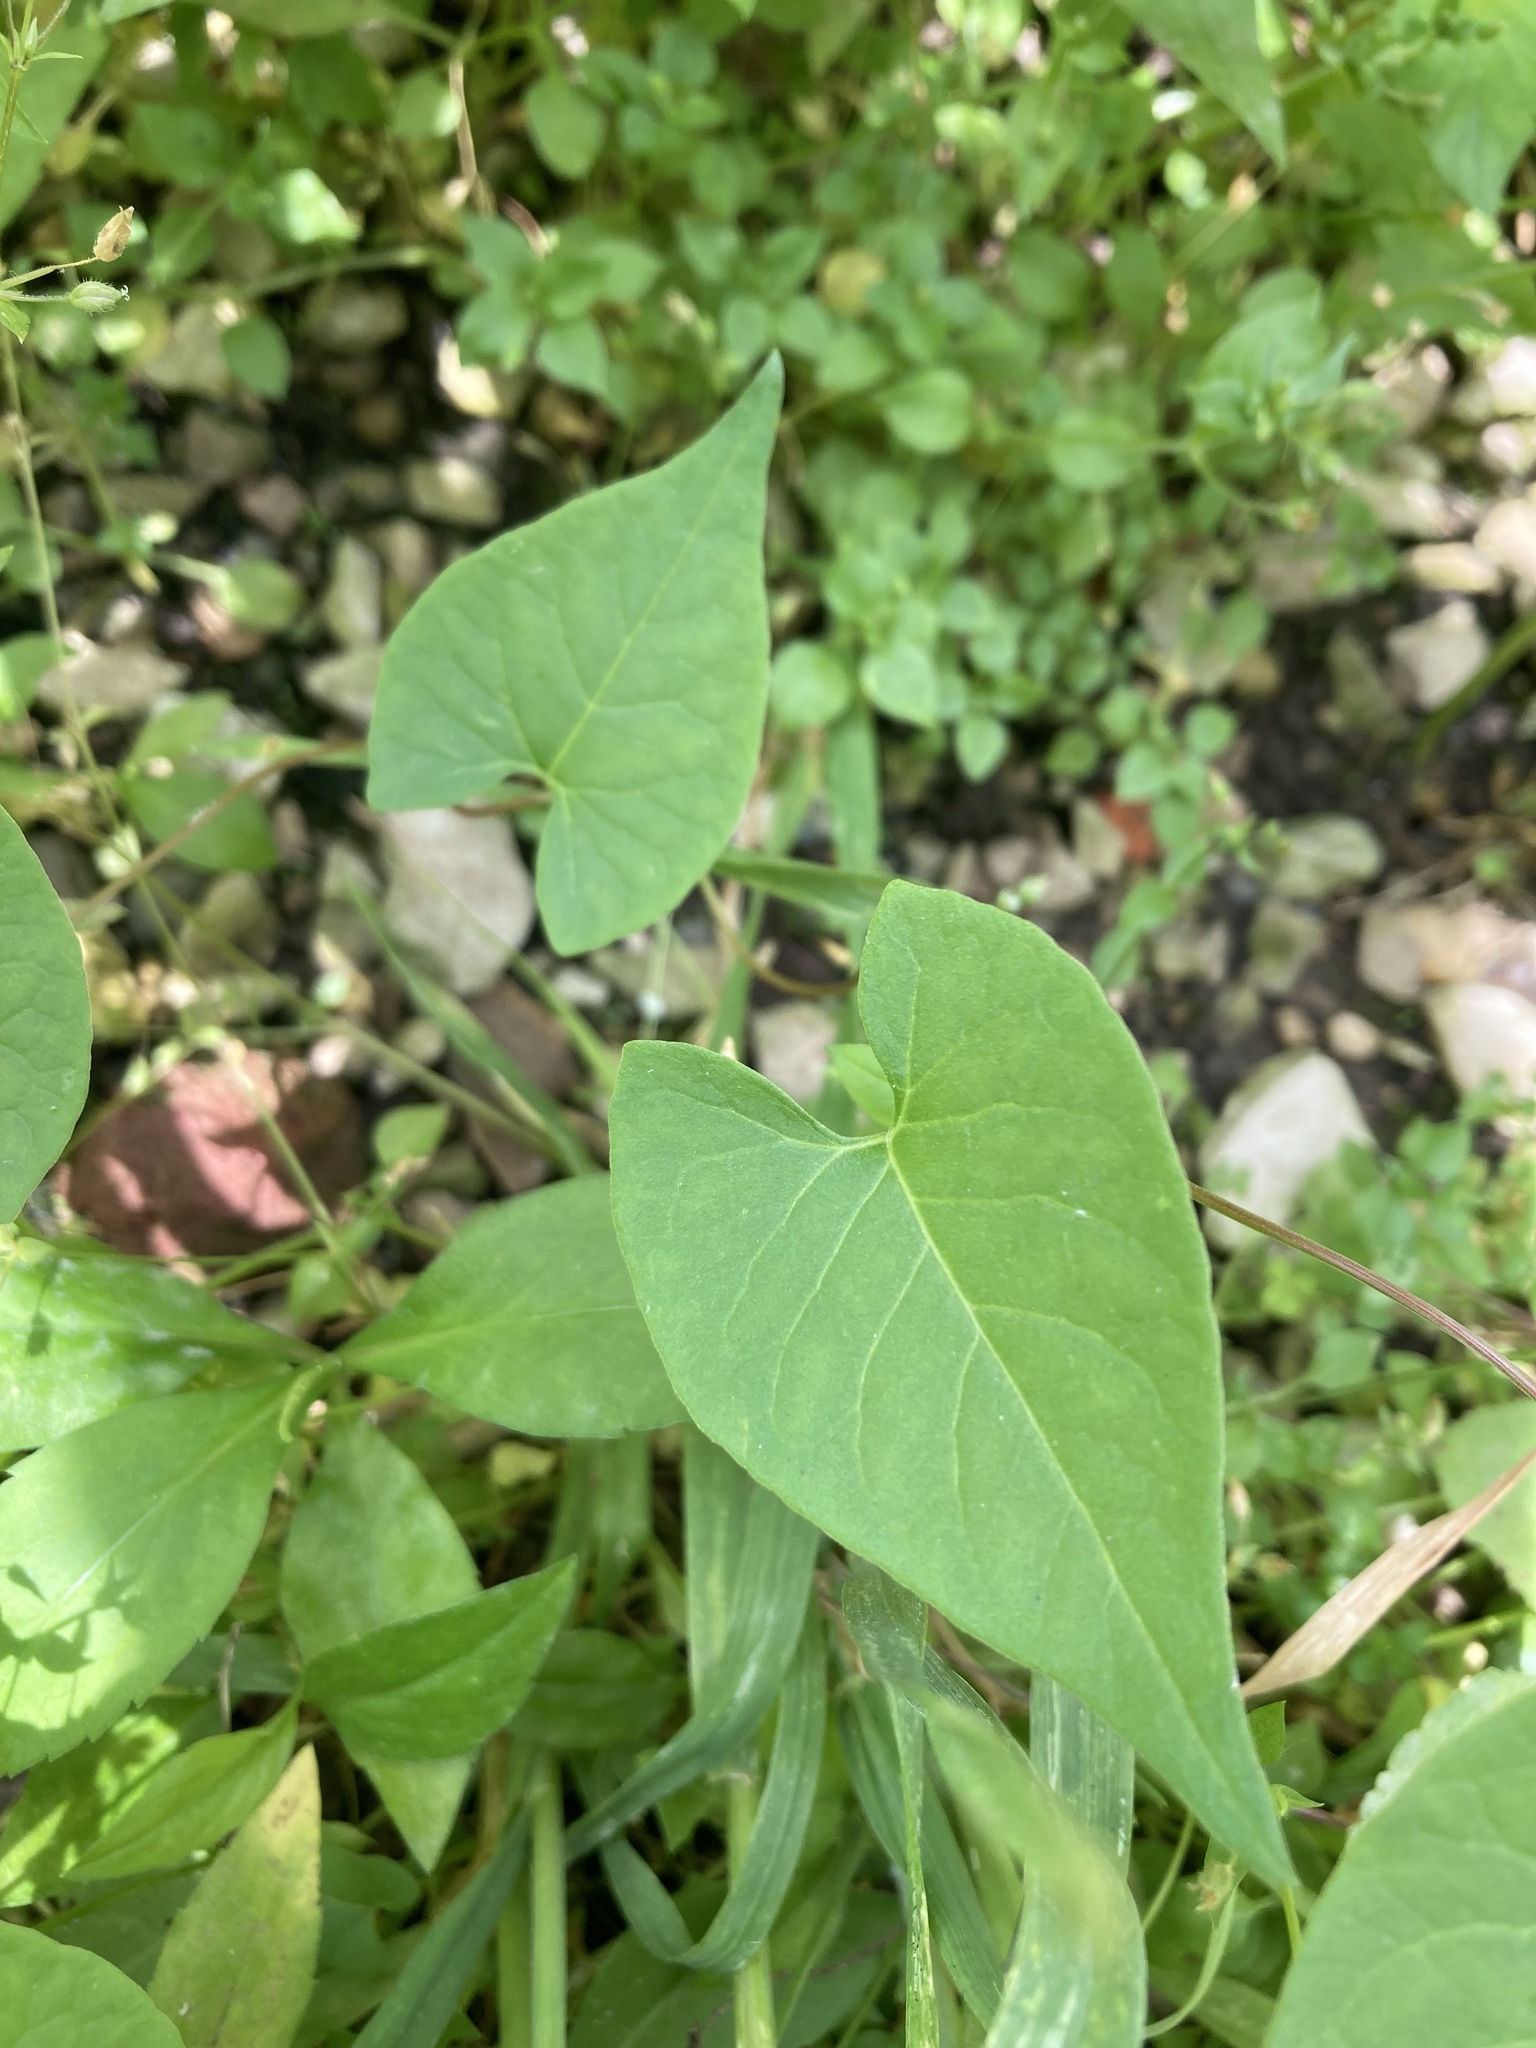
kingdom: Plantae
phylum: Tracheophyta
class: Magnoliopsida
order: Caryophyllales
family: Polygonaceae
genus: Fallopia
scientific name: Fallopia scandens
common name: Climbing false buckwheat
